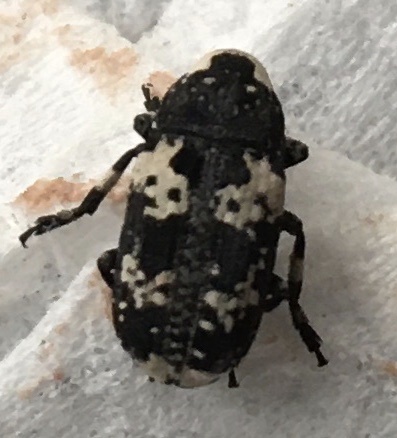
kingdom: Animalia
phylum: Arthropoda
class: Insecta
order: Coleoptera
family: Anthribidae
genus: Euparius
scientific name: Euparius lugubris
